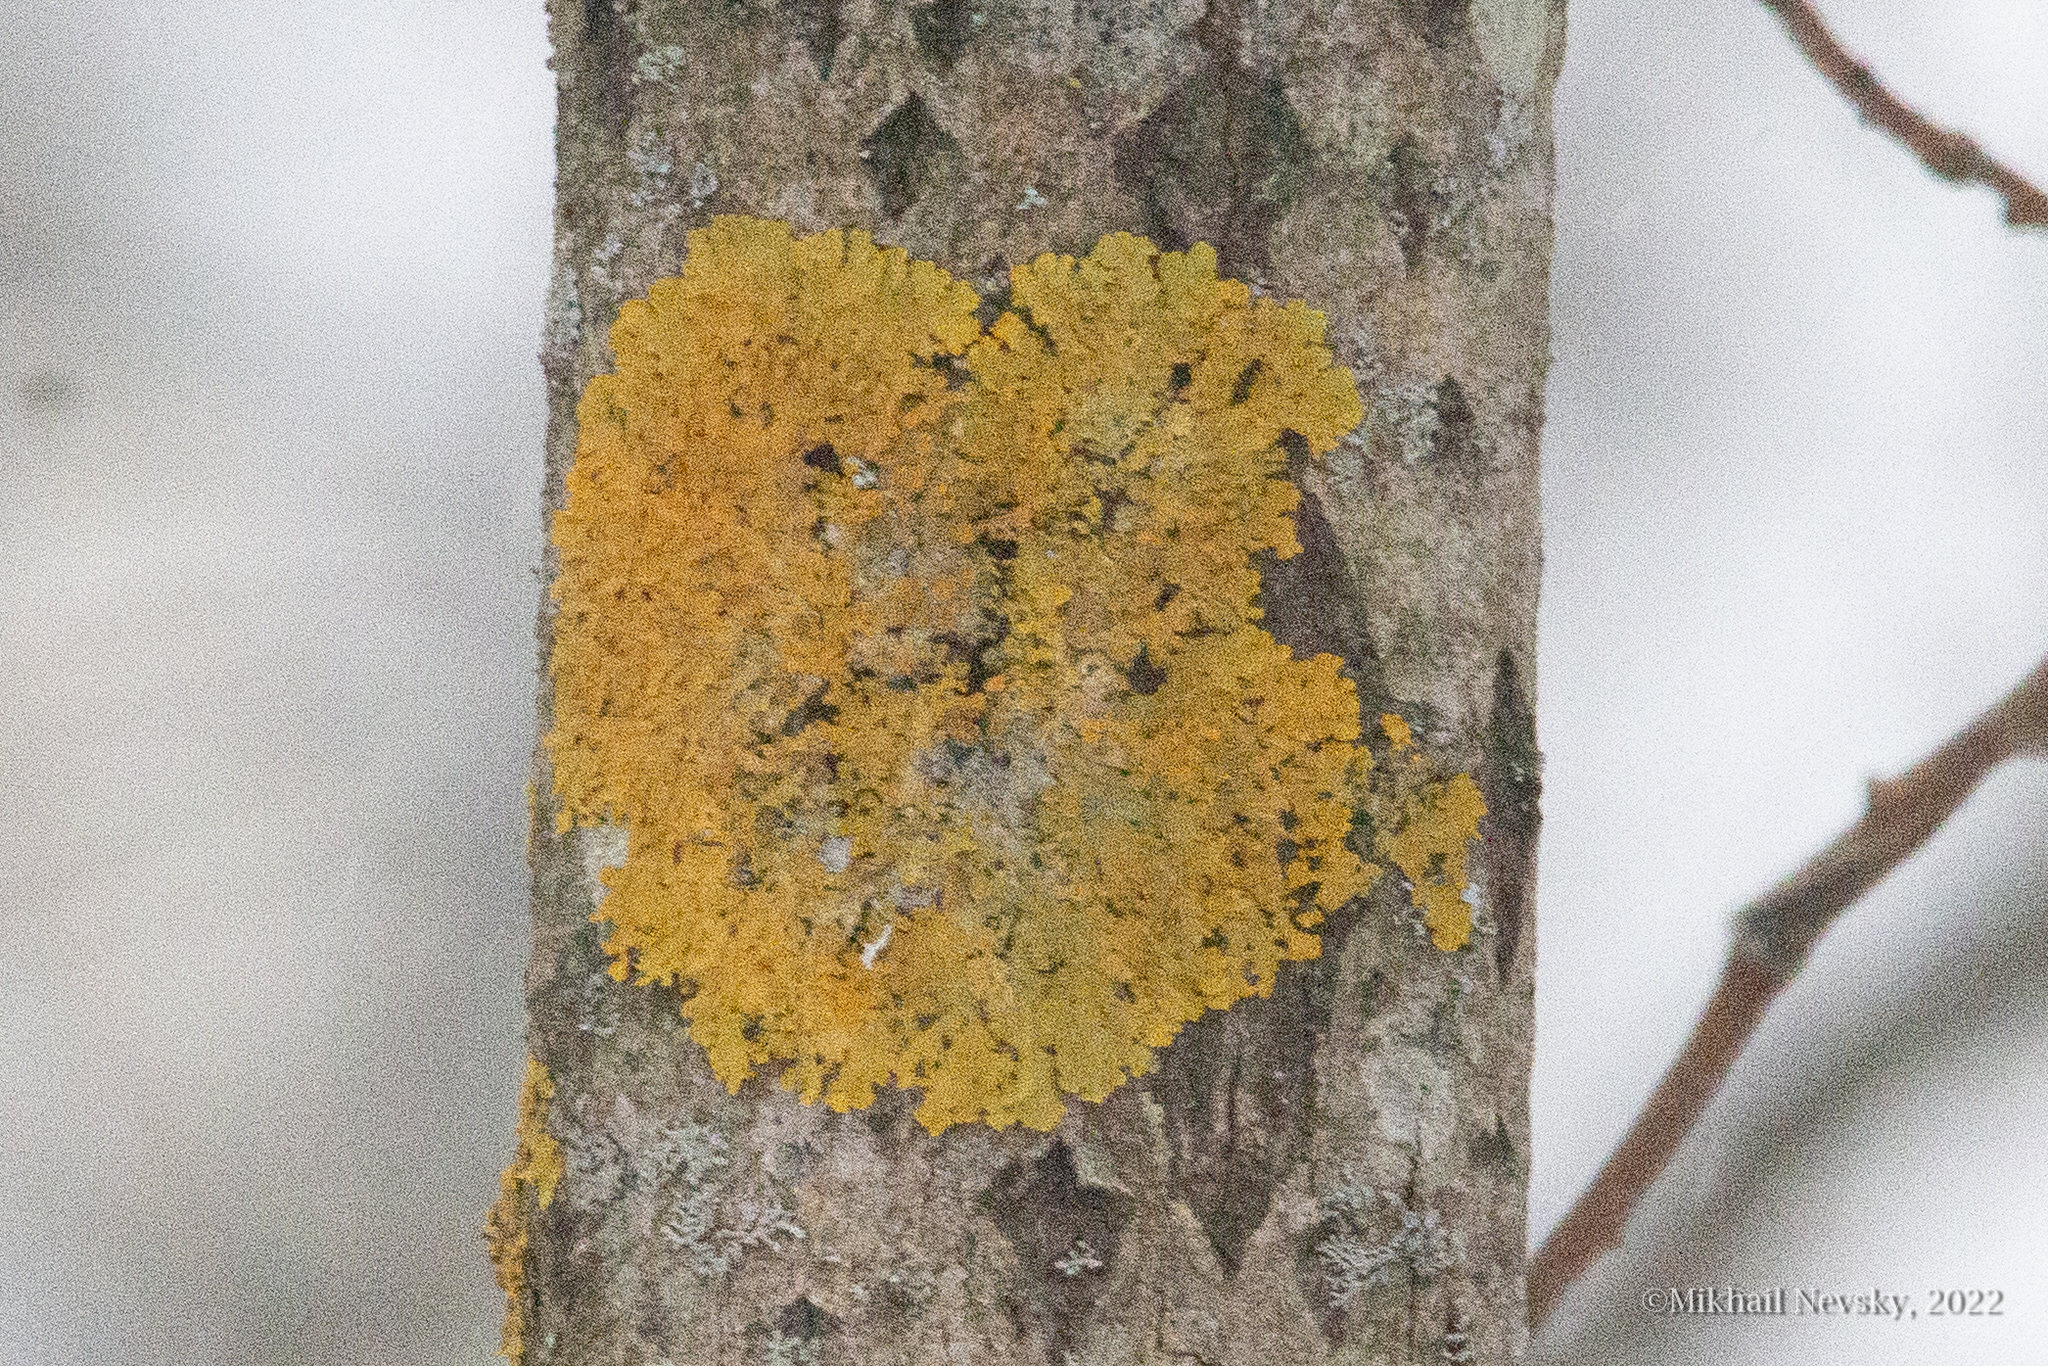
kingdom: Fungi
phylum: Ascomycota
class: Lecanoromycetes
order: Teloschistales
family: Teloschistaceae
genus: Xanthoria
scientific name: Xanthoria parietina
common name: Common orange lichen
